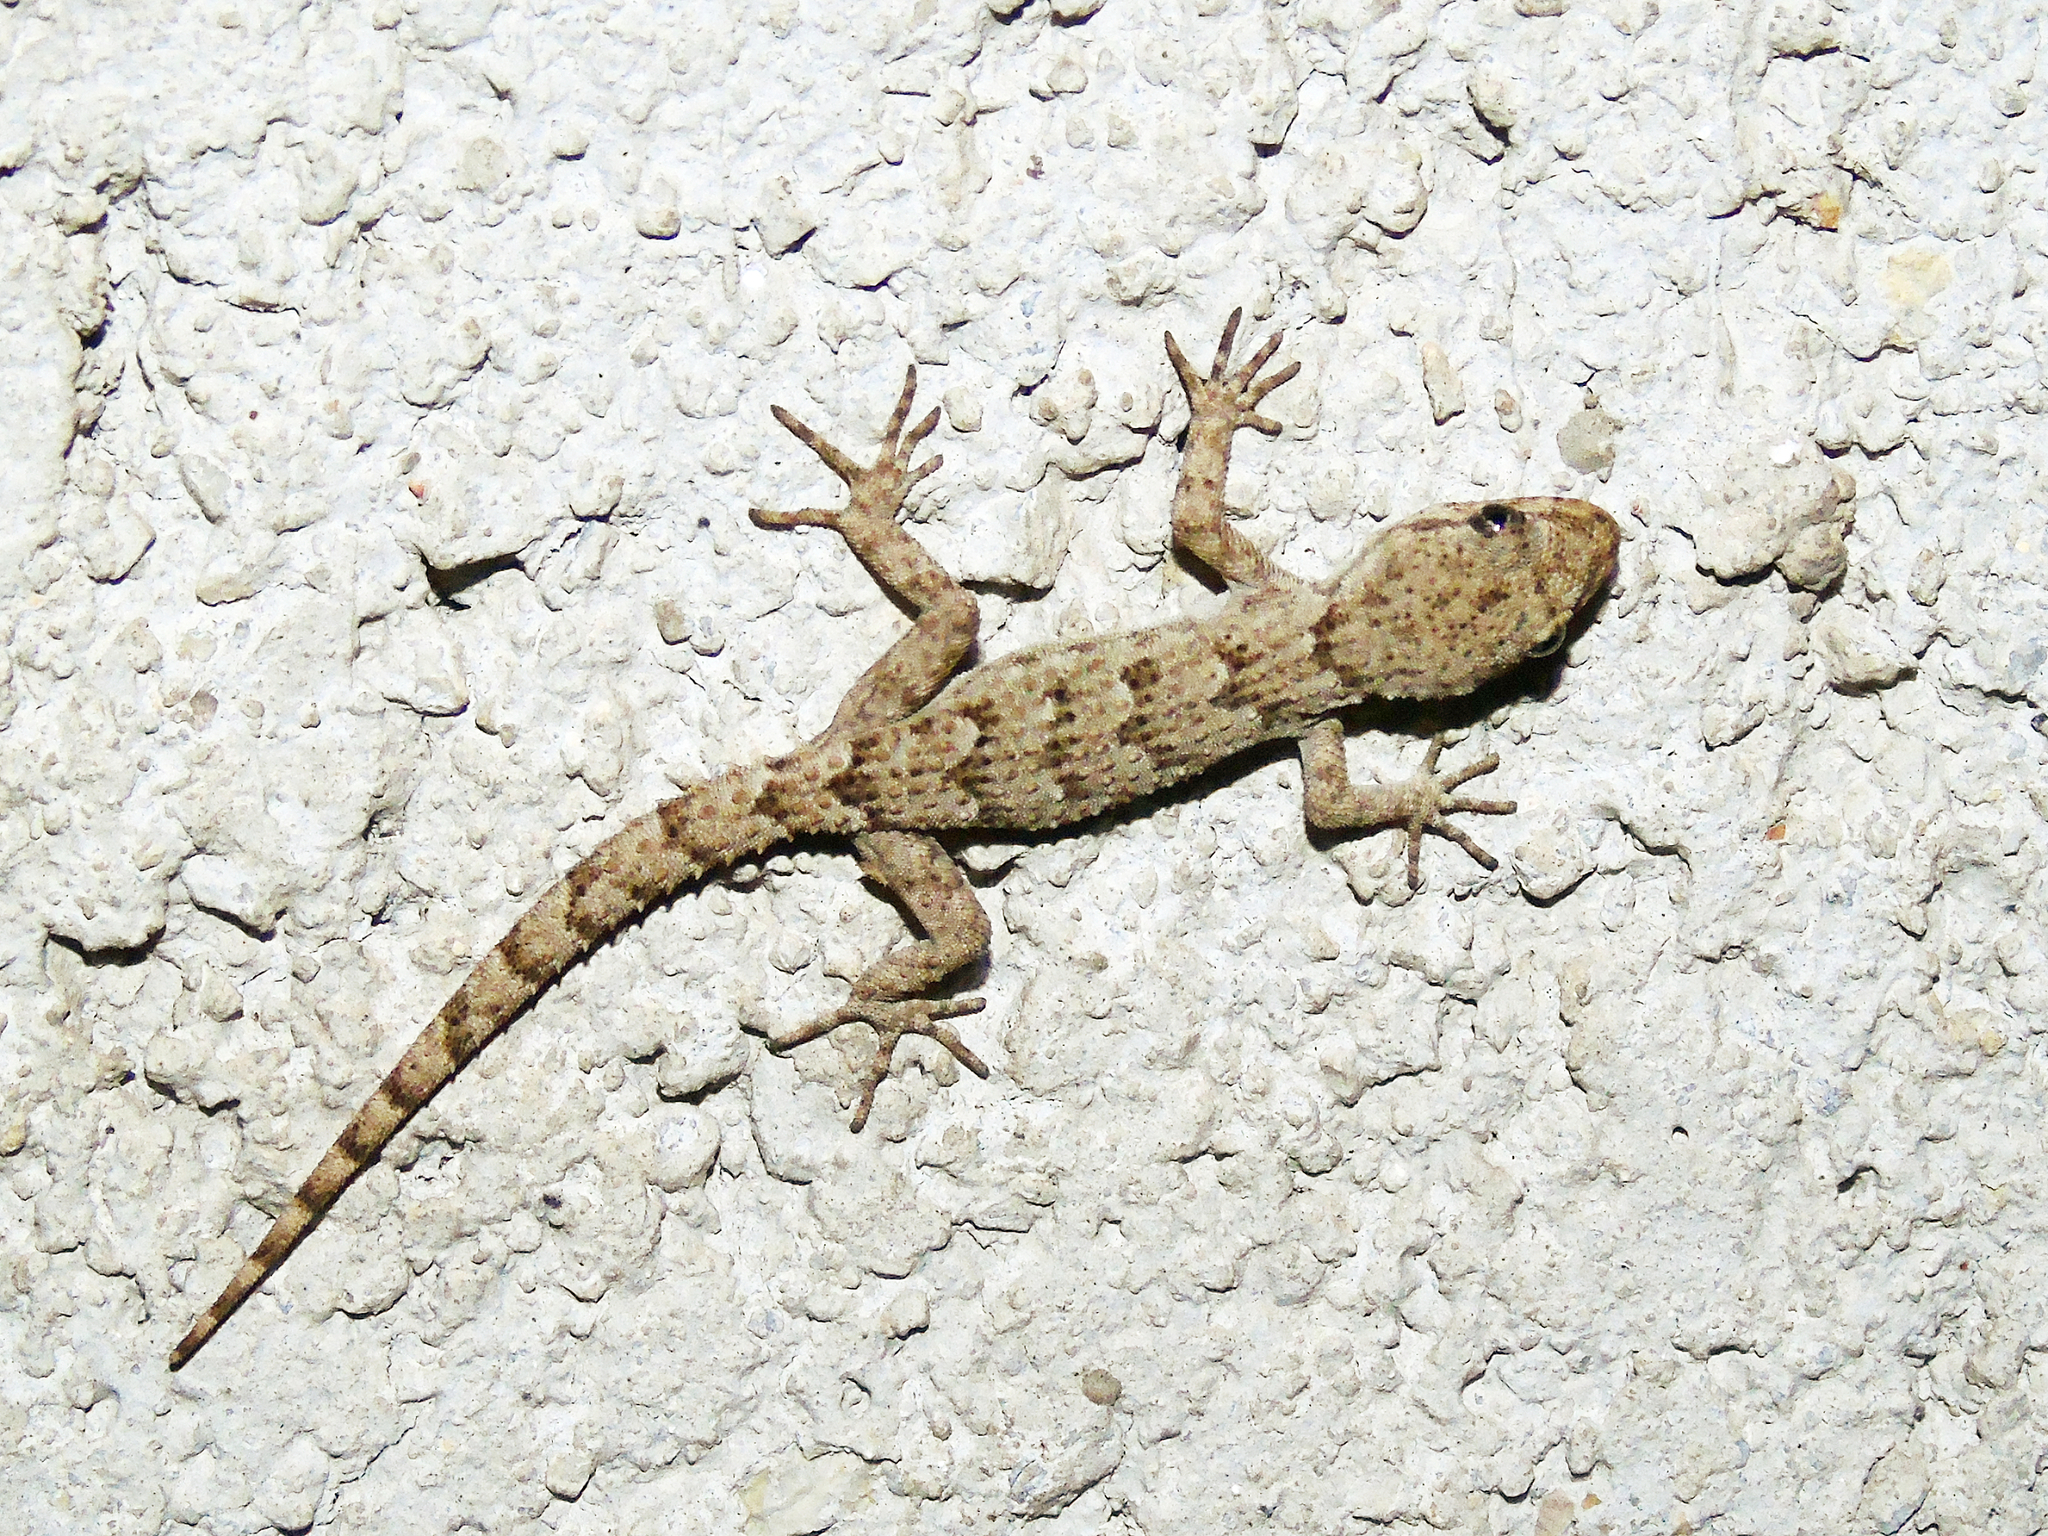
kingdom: Animalia
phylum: Chordata
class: Squamata
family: Gekkonidae
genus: Mediodactylus
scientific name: Mediodactylus kotschyi
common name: Kotschy's gecko
